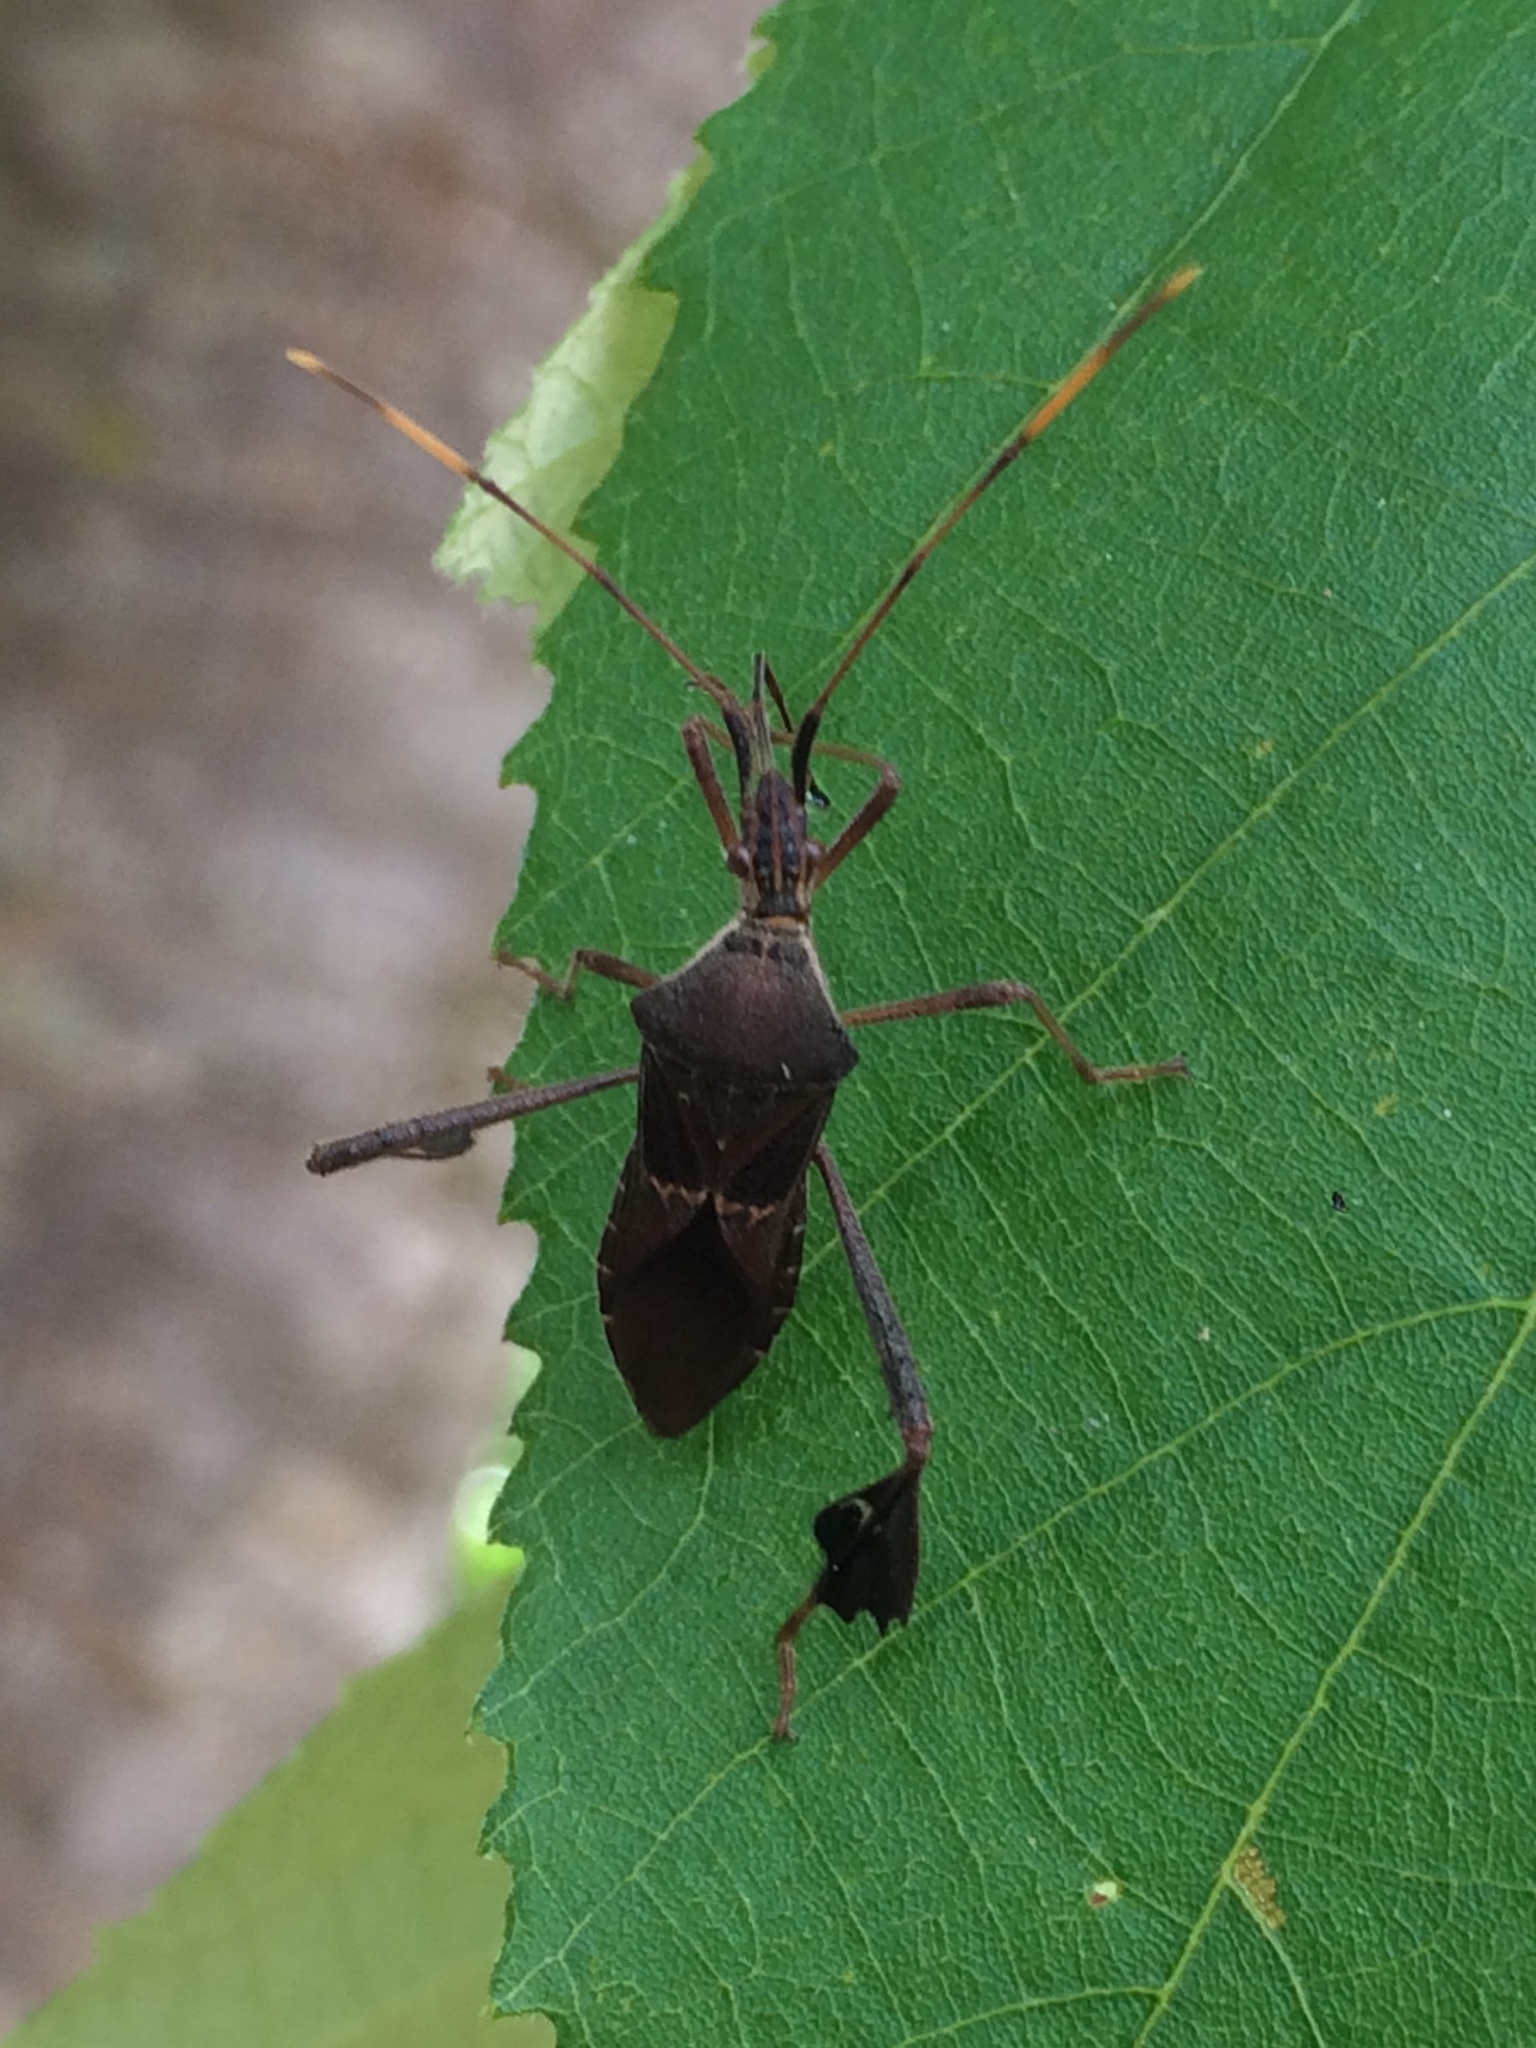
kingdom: Animalia
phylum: Arthropoda
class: Insecta
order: Hemiptera
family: Coreidae
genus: Leptoglossus
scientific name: Leptoglossus stigma
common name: O'neal's leaf-footed bug
